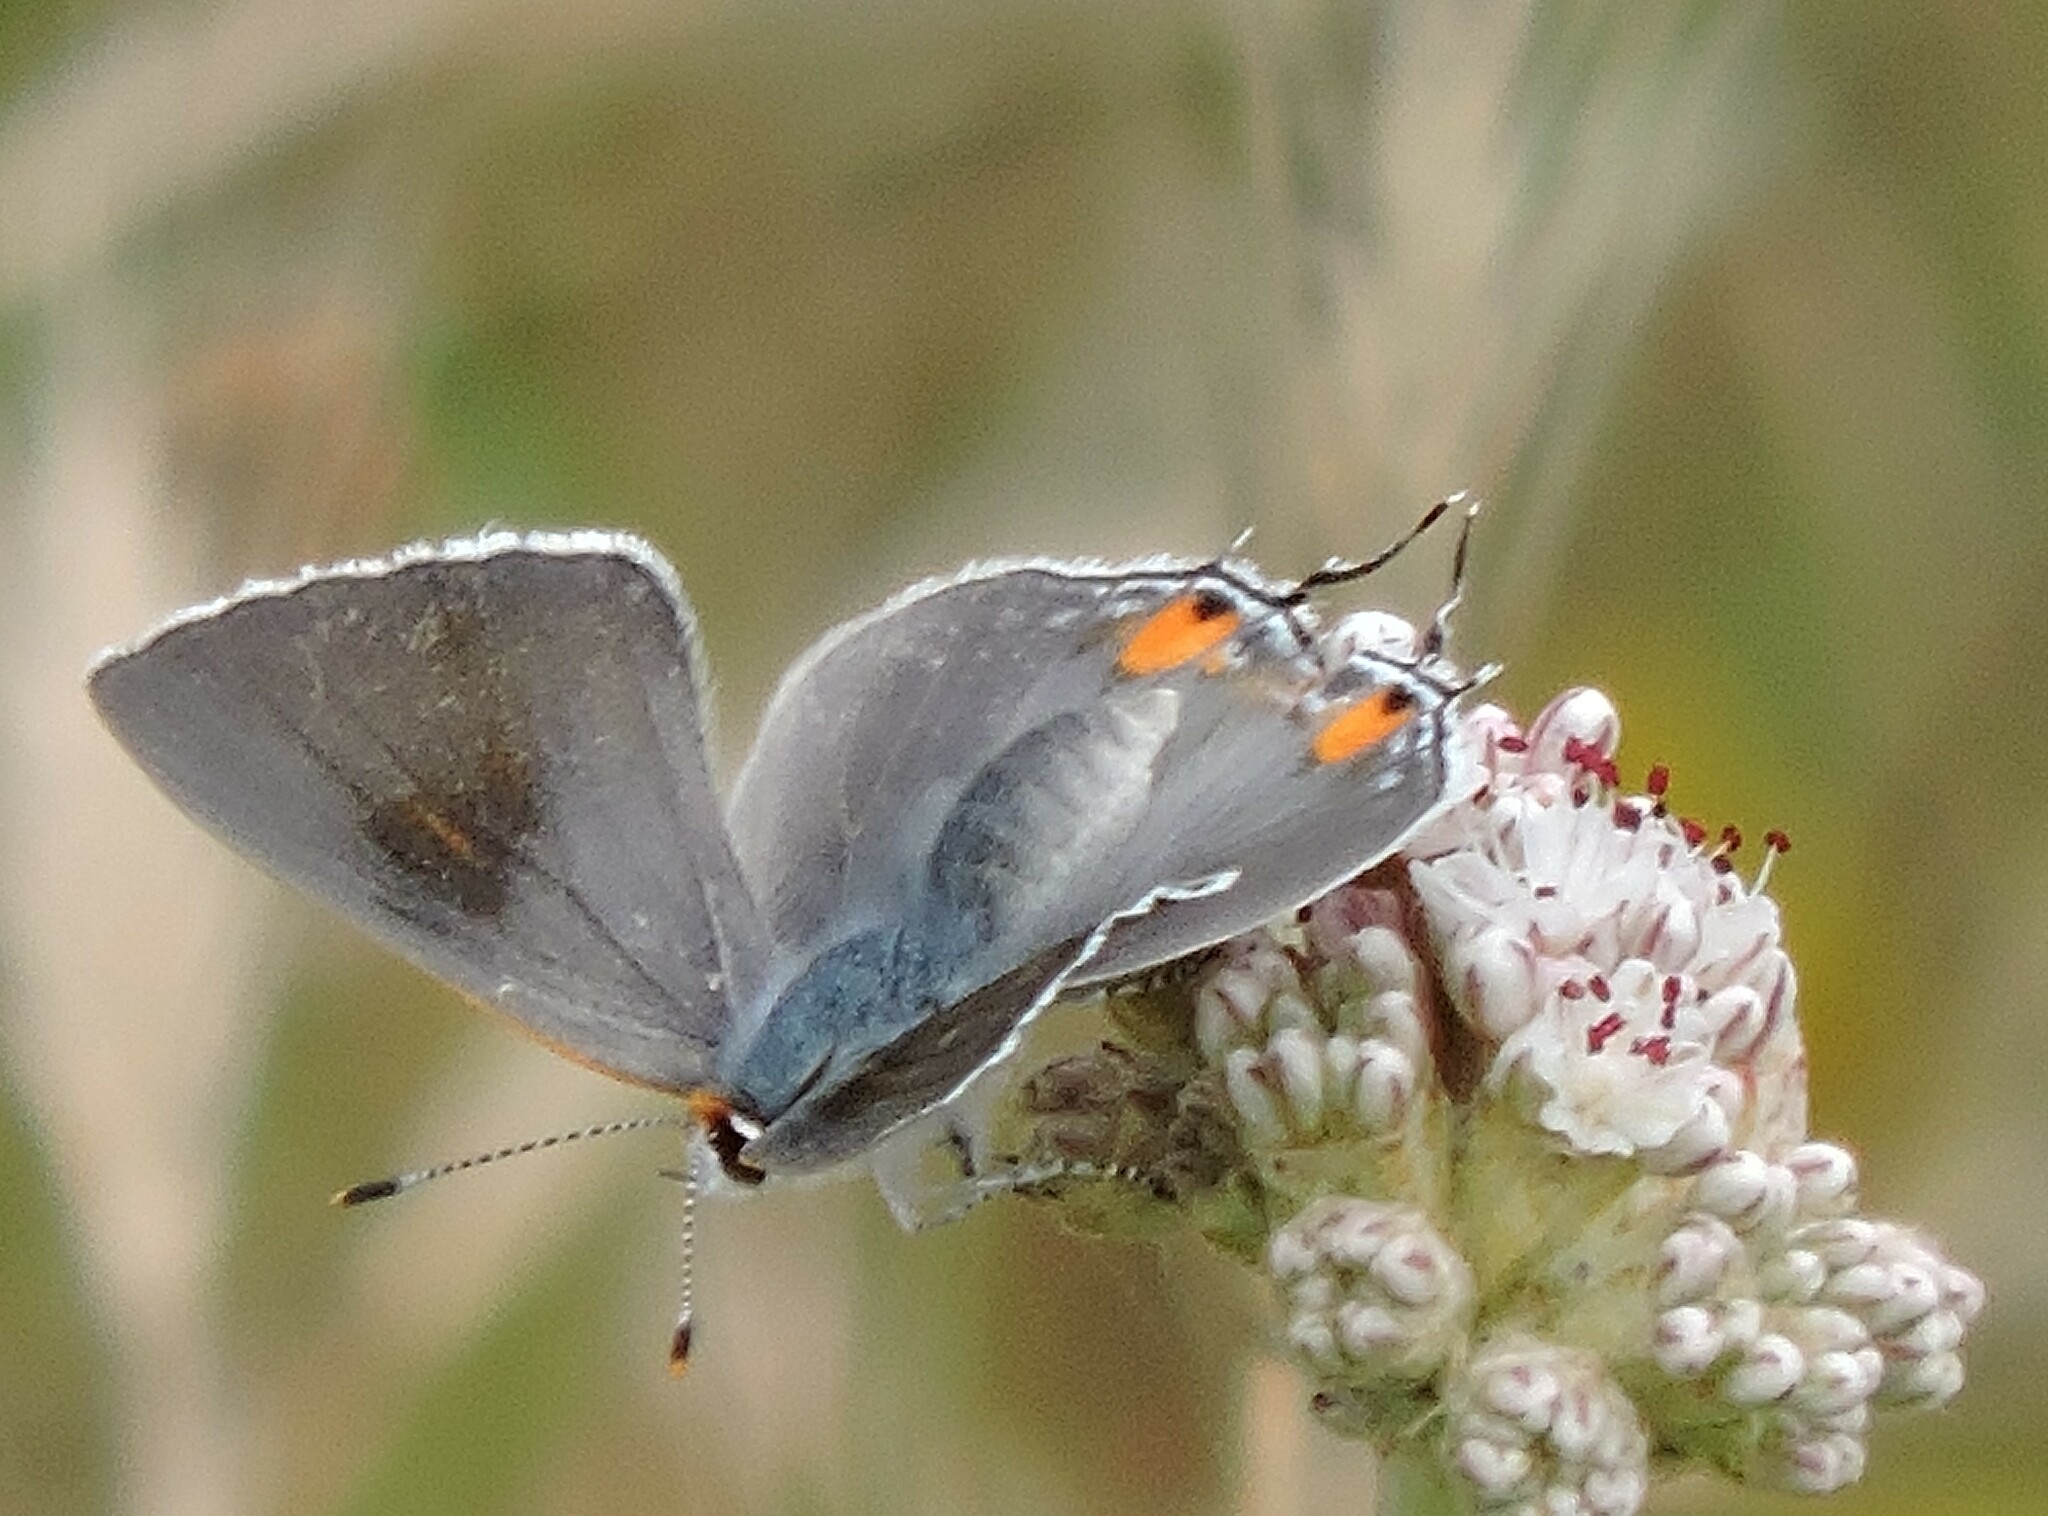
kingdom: Animalia
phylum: Arthropoda
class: Insecta
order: Lepidoptera
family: Lycaenidae
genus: Strymon
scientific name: Strymon melinus
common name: Gray hairstreak
